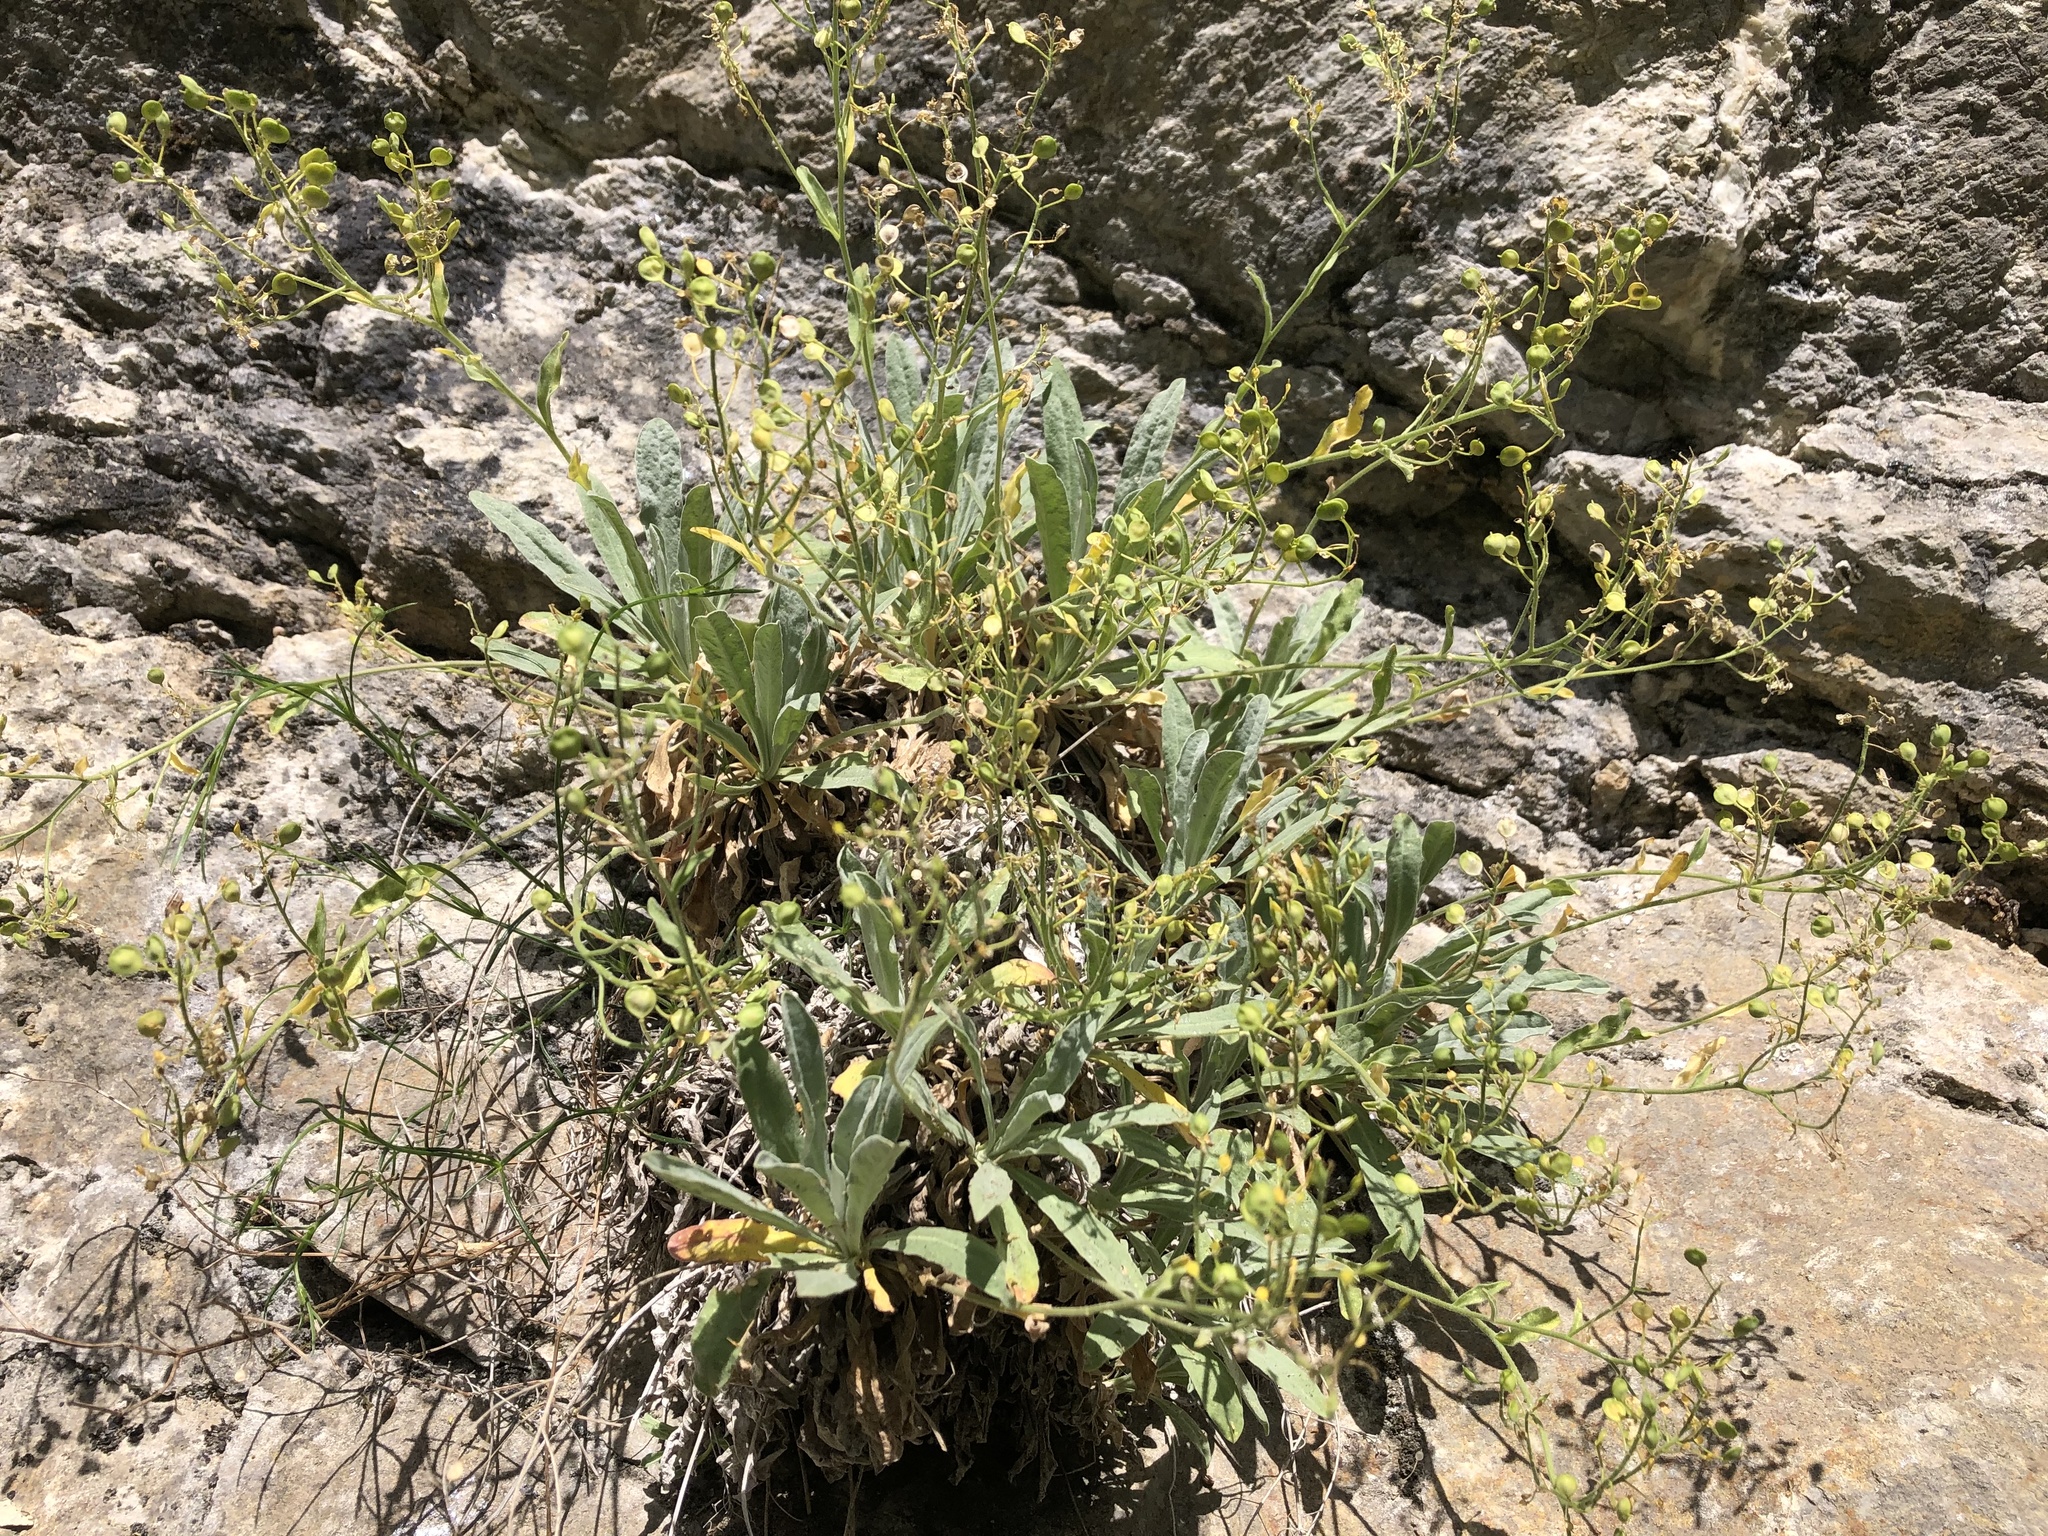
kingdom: Plantae
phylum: Tracheophyta
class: Magnoliopsida
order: Brassicales
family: Brassicaceae
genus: Aurinia
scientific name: Aurinia saxatilis
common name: Golden-tuft alyssum
